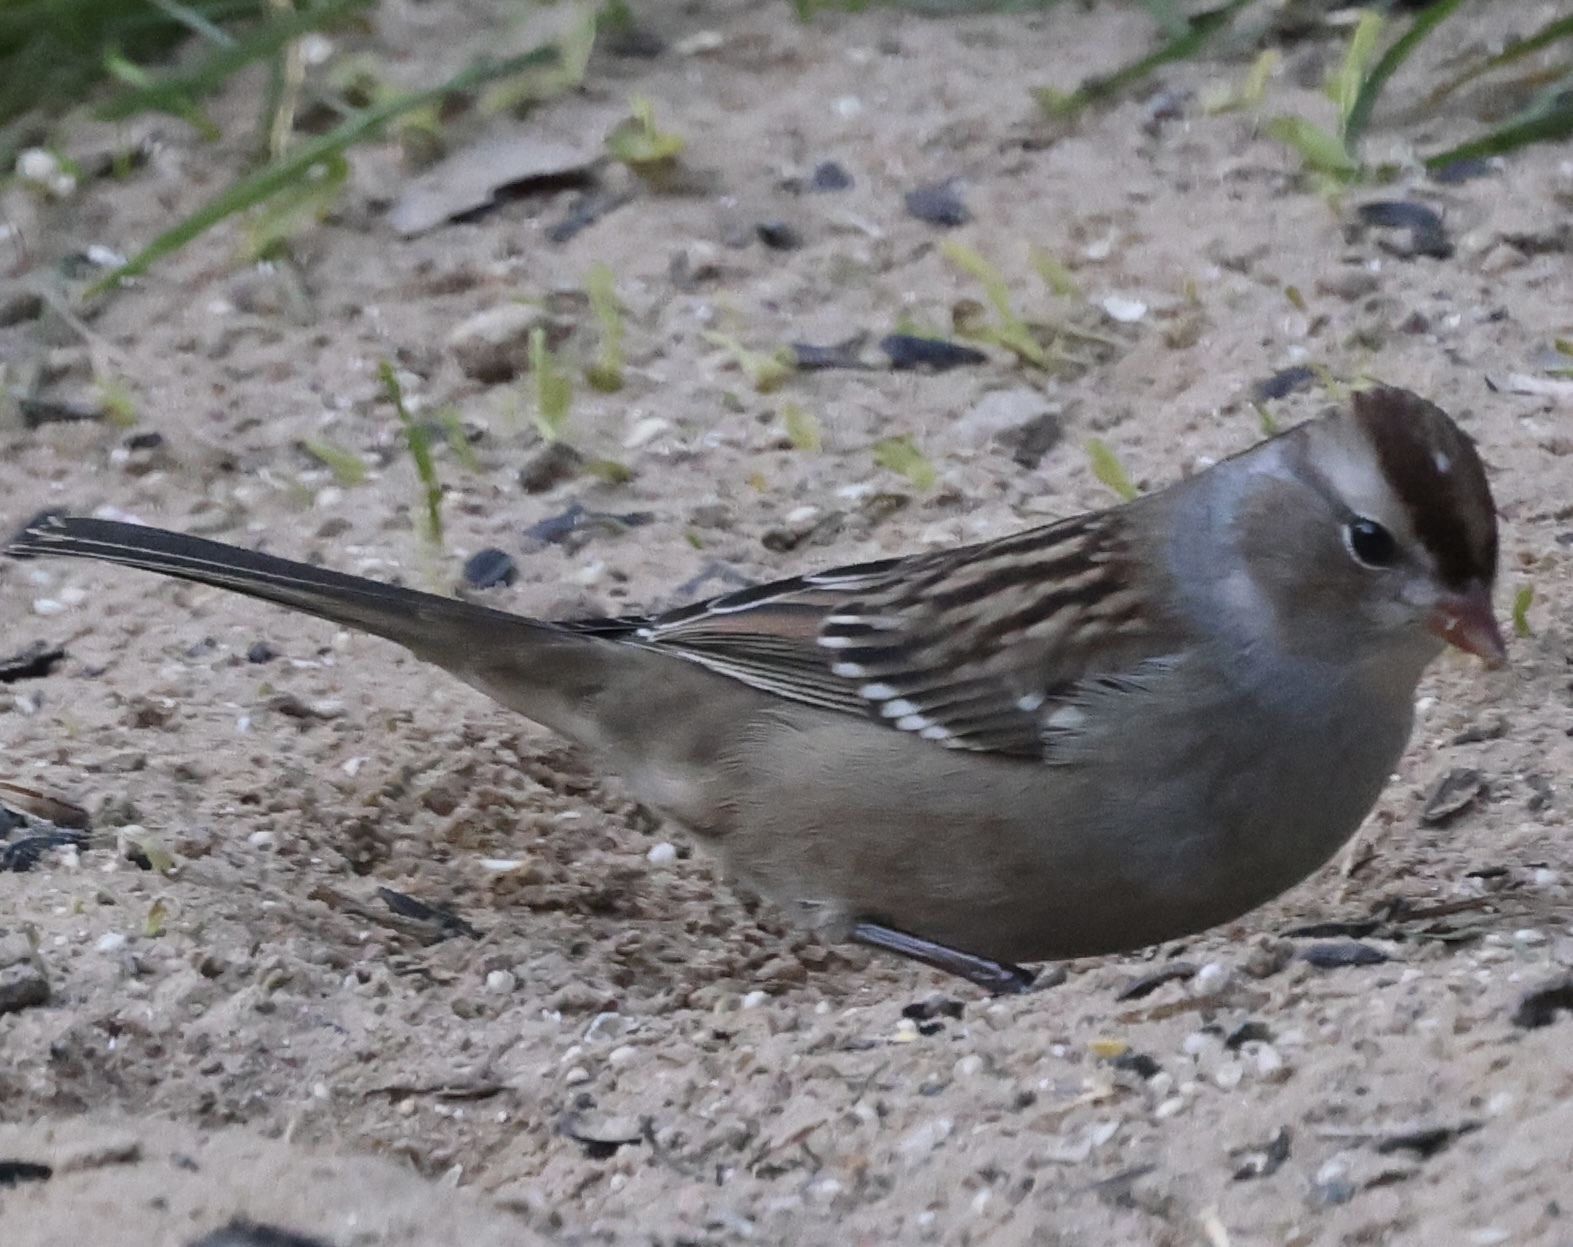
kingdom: Animalia
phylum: Chordata
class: Aves
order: Passeriformes
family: Passerellidae
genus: Zonotrichia
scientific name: Zonotrichia leucophrys
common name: White-crowned sparrow
